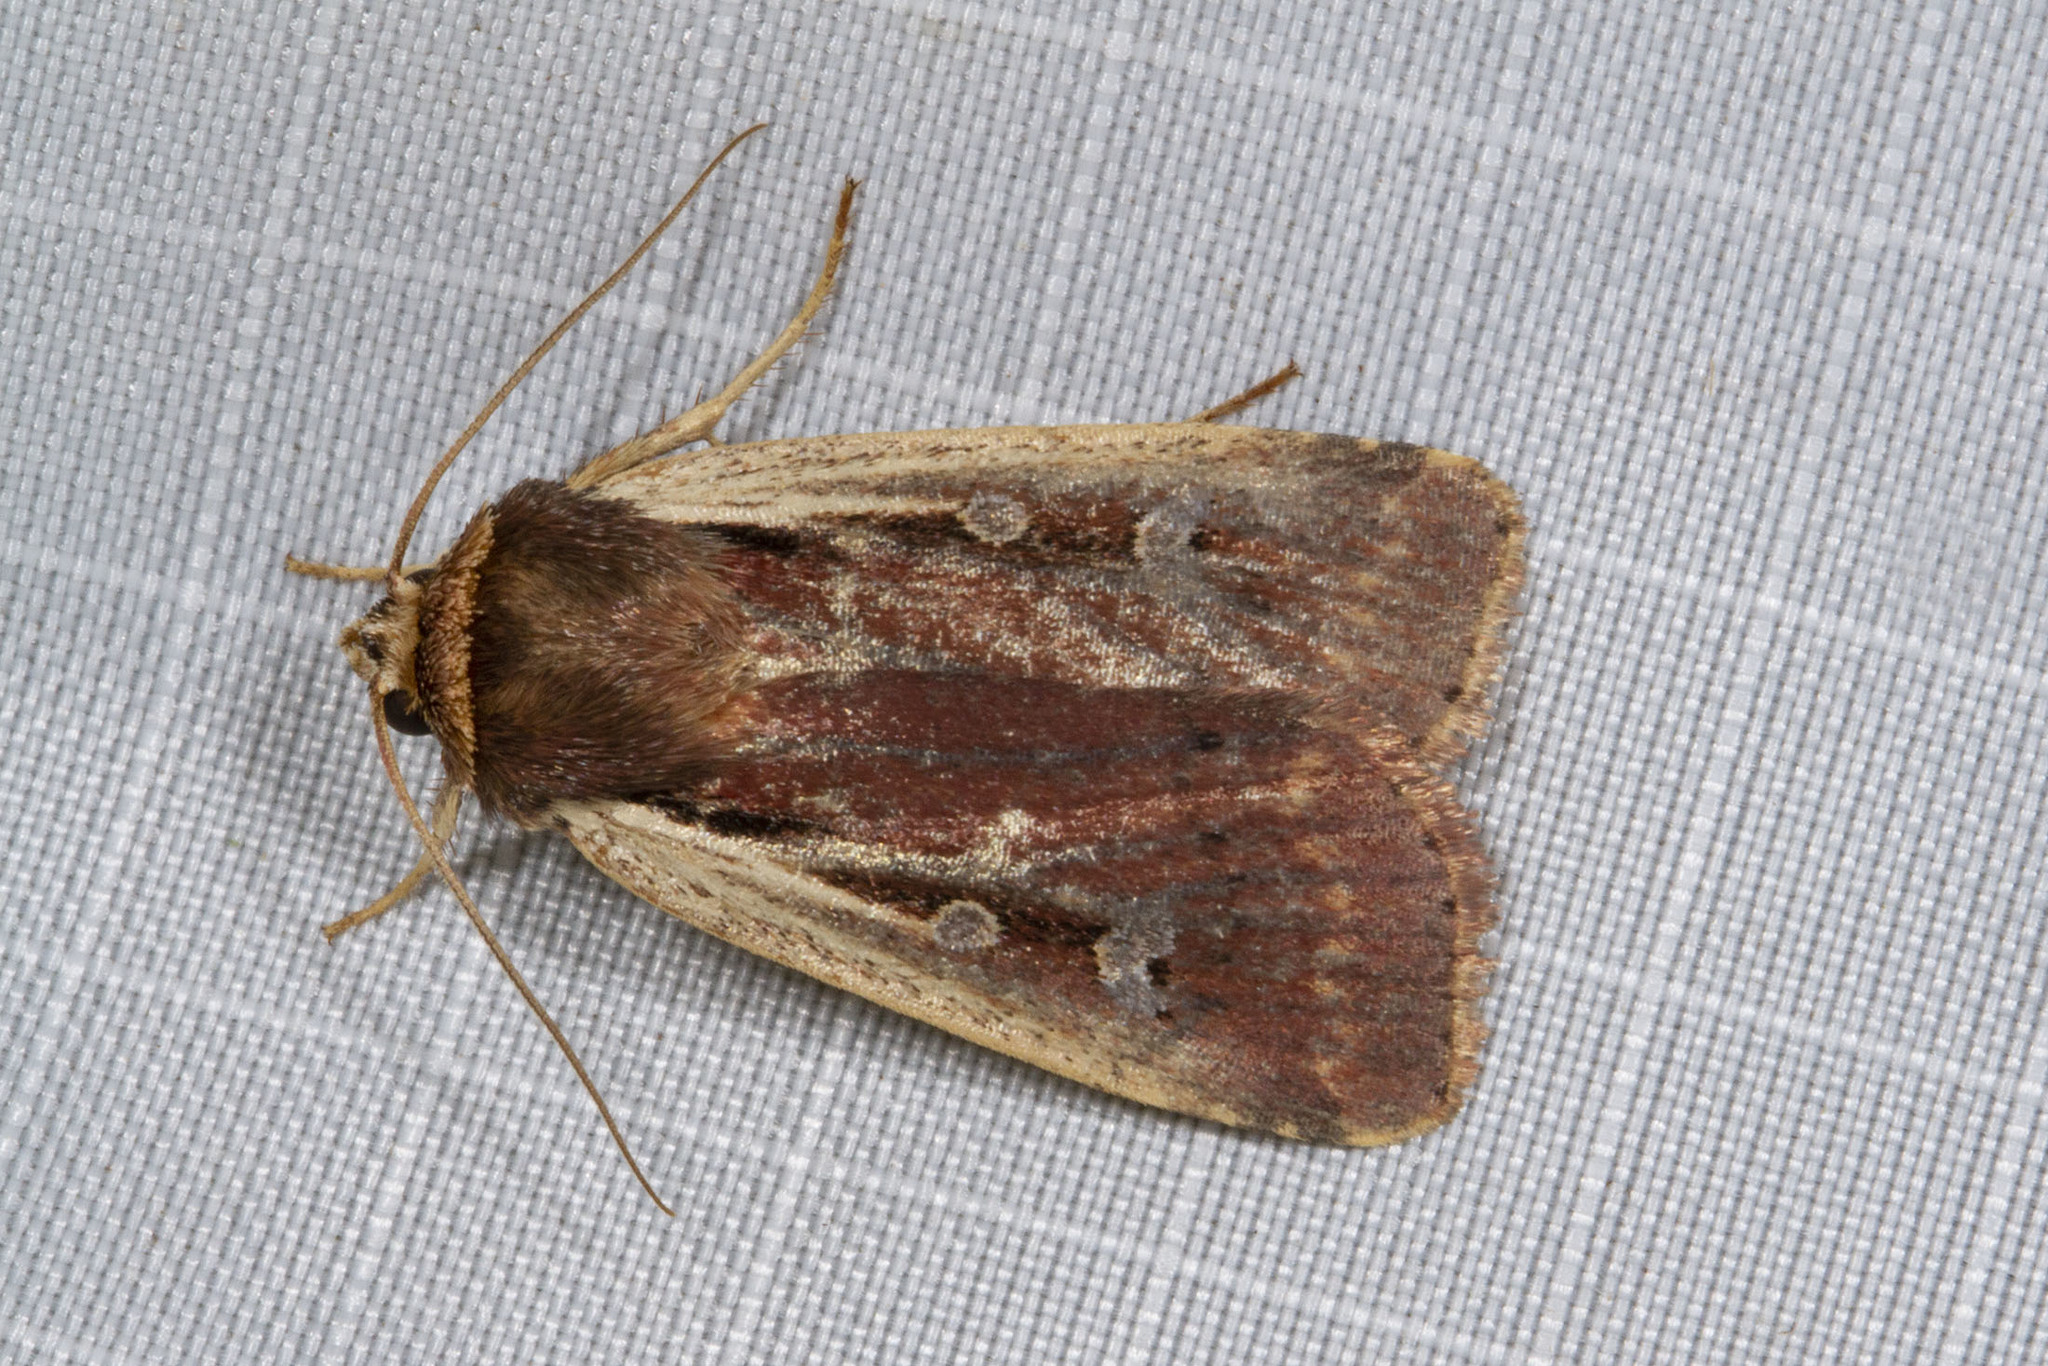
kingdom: Animalia
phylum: Arthropoda
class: Insecta
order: Lepidoptera
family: Noctuidae
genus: Ochropleura
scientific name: Ochropleura implecta
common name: Flame-shouldered dart
